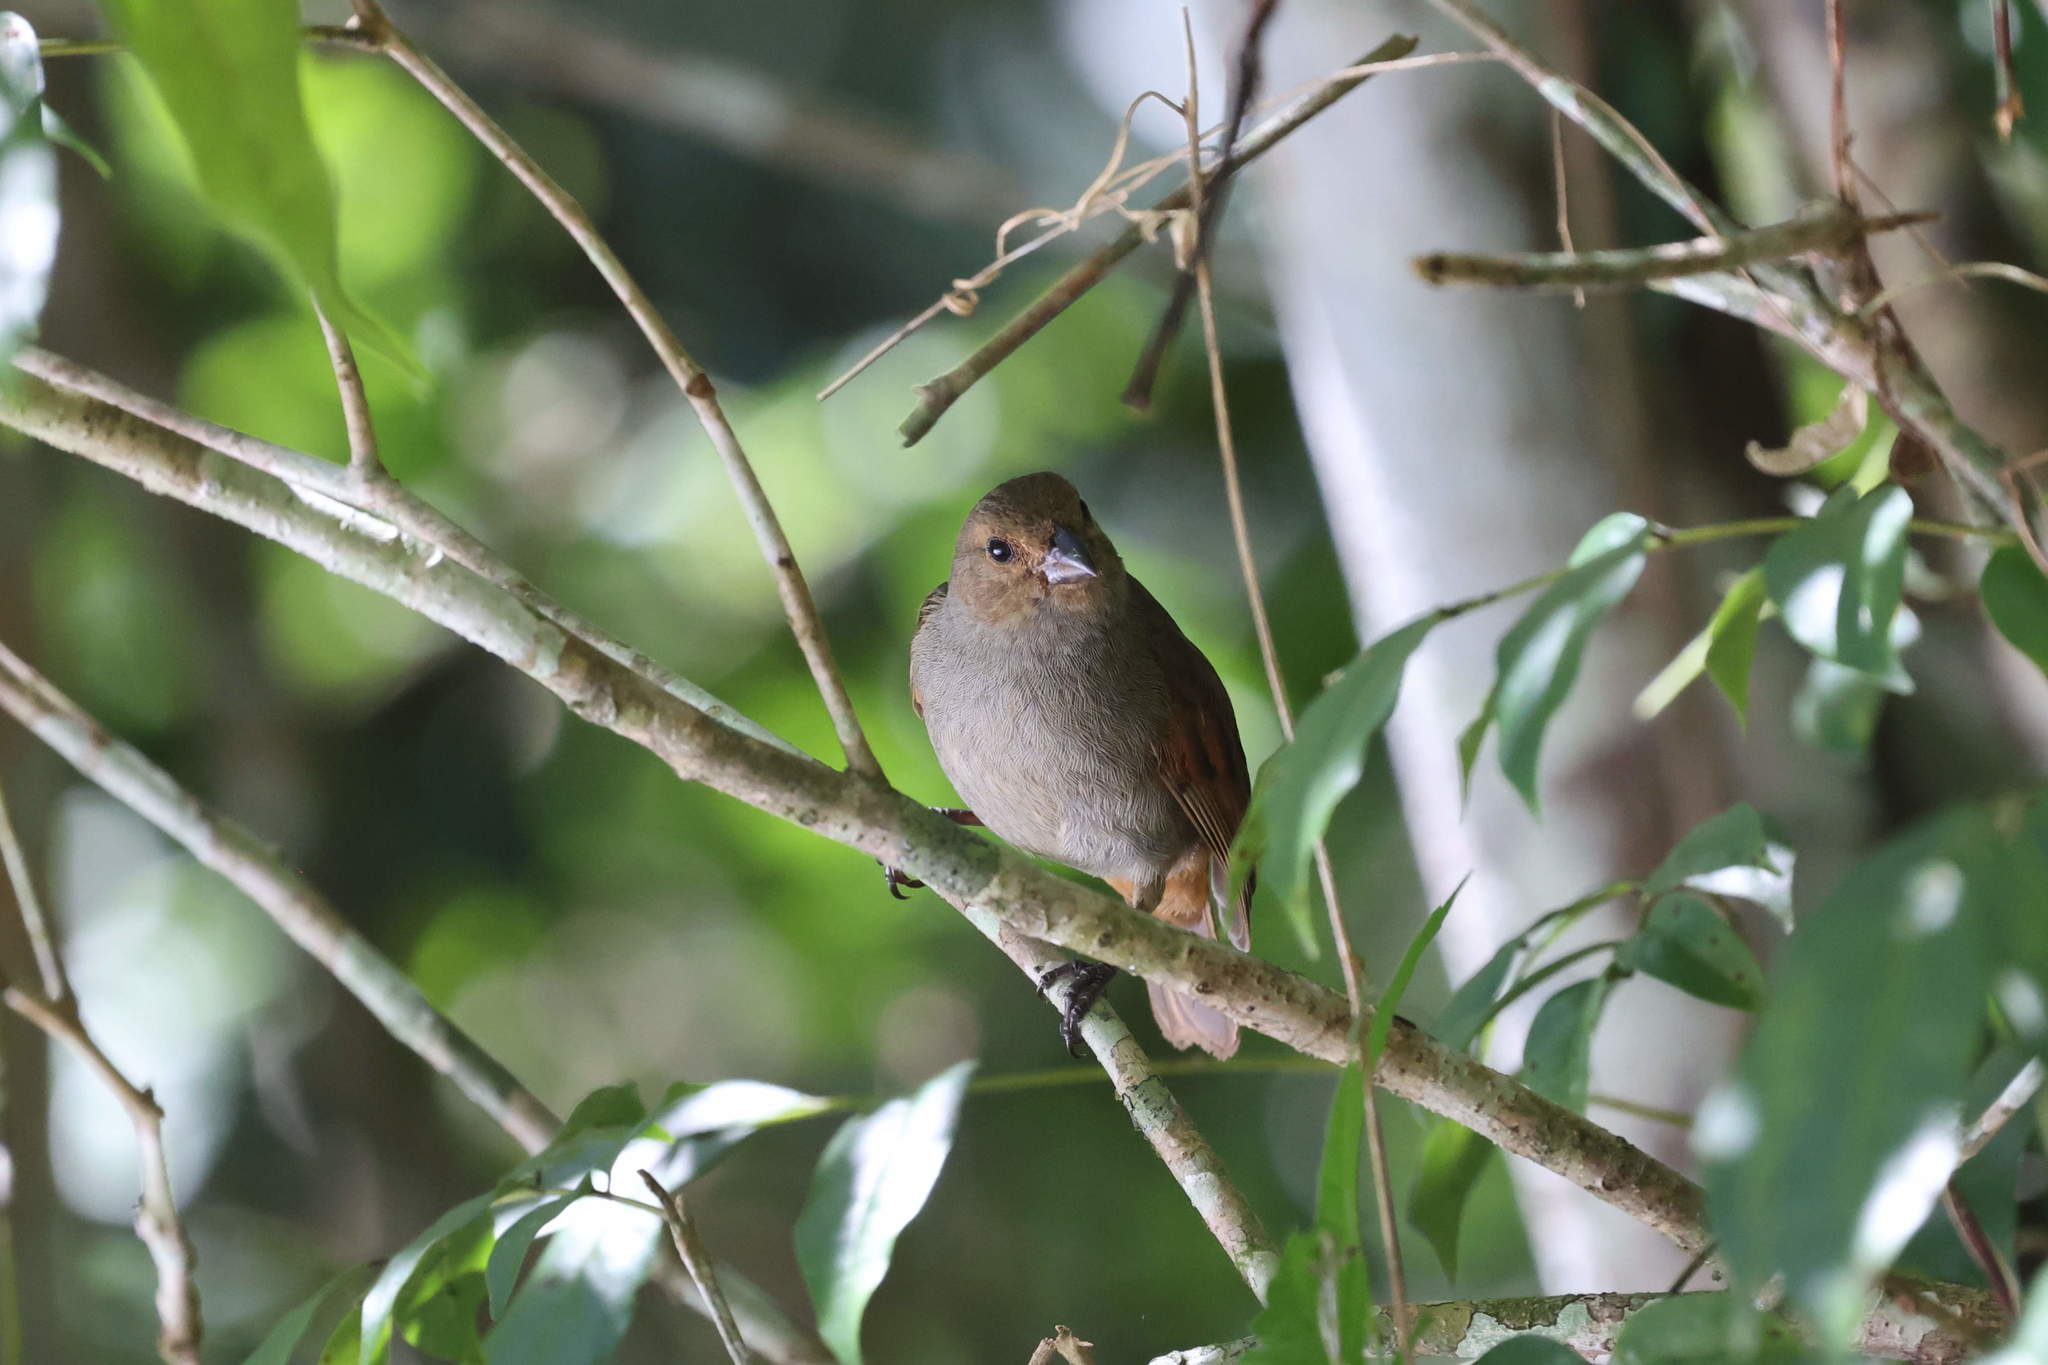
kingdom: Animalia
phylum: Chordata
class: Aves
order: Passeriformes
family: Thraupidae
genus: Loxigilla
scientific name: Loxigilla noctis
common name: Lesser antillean bullfinch
